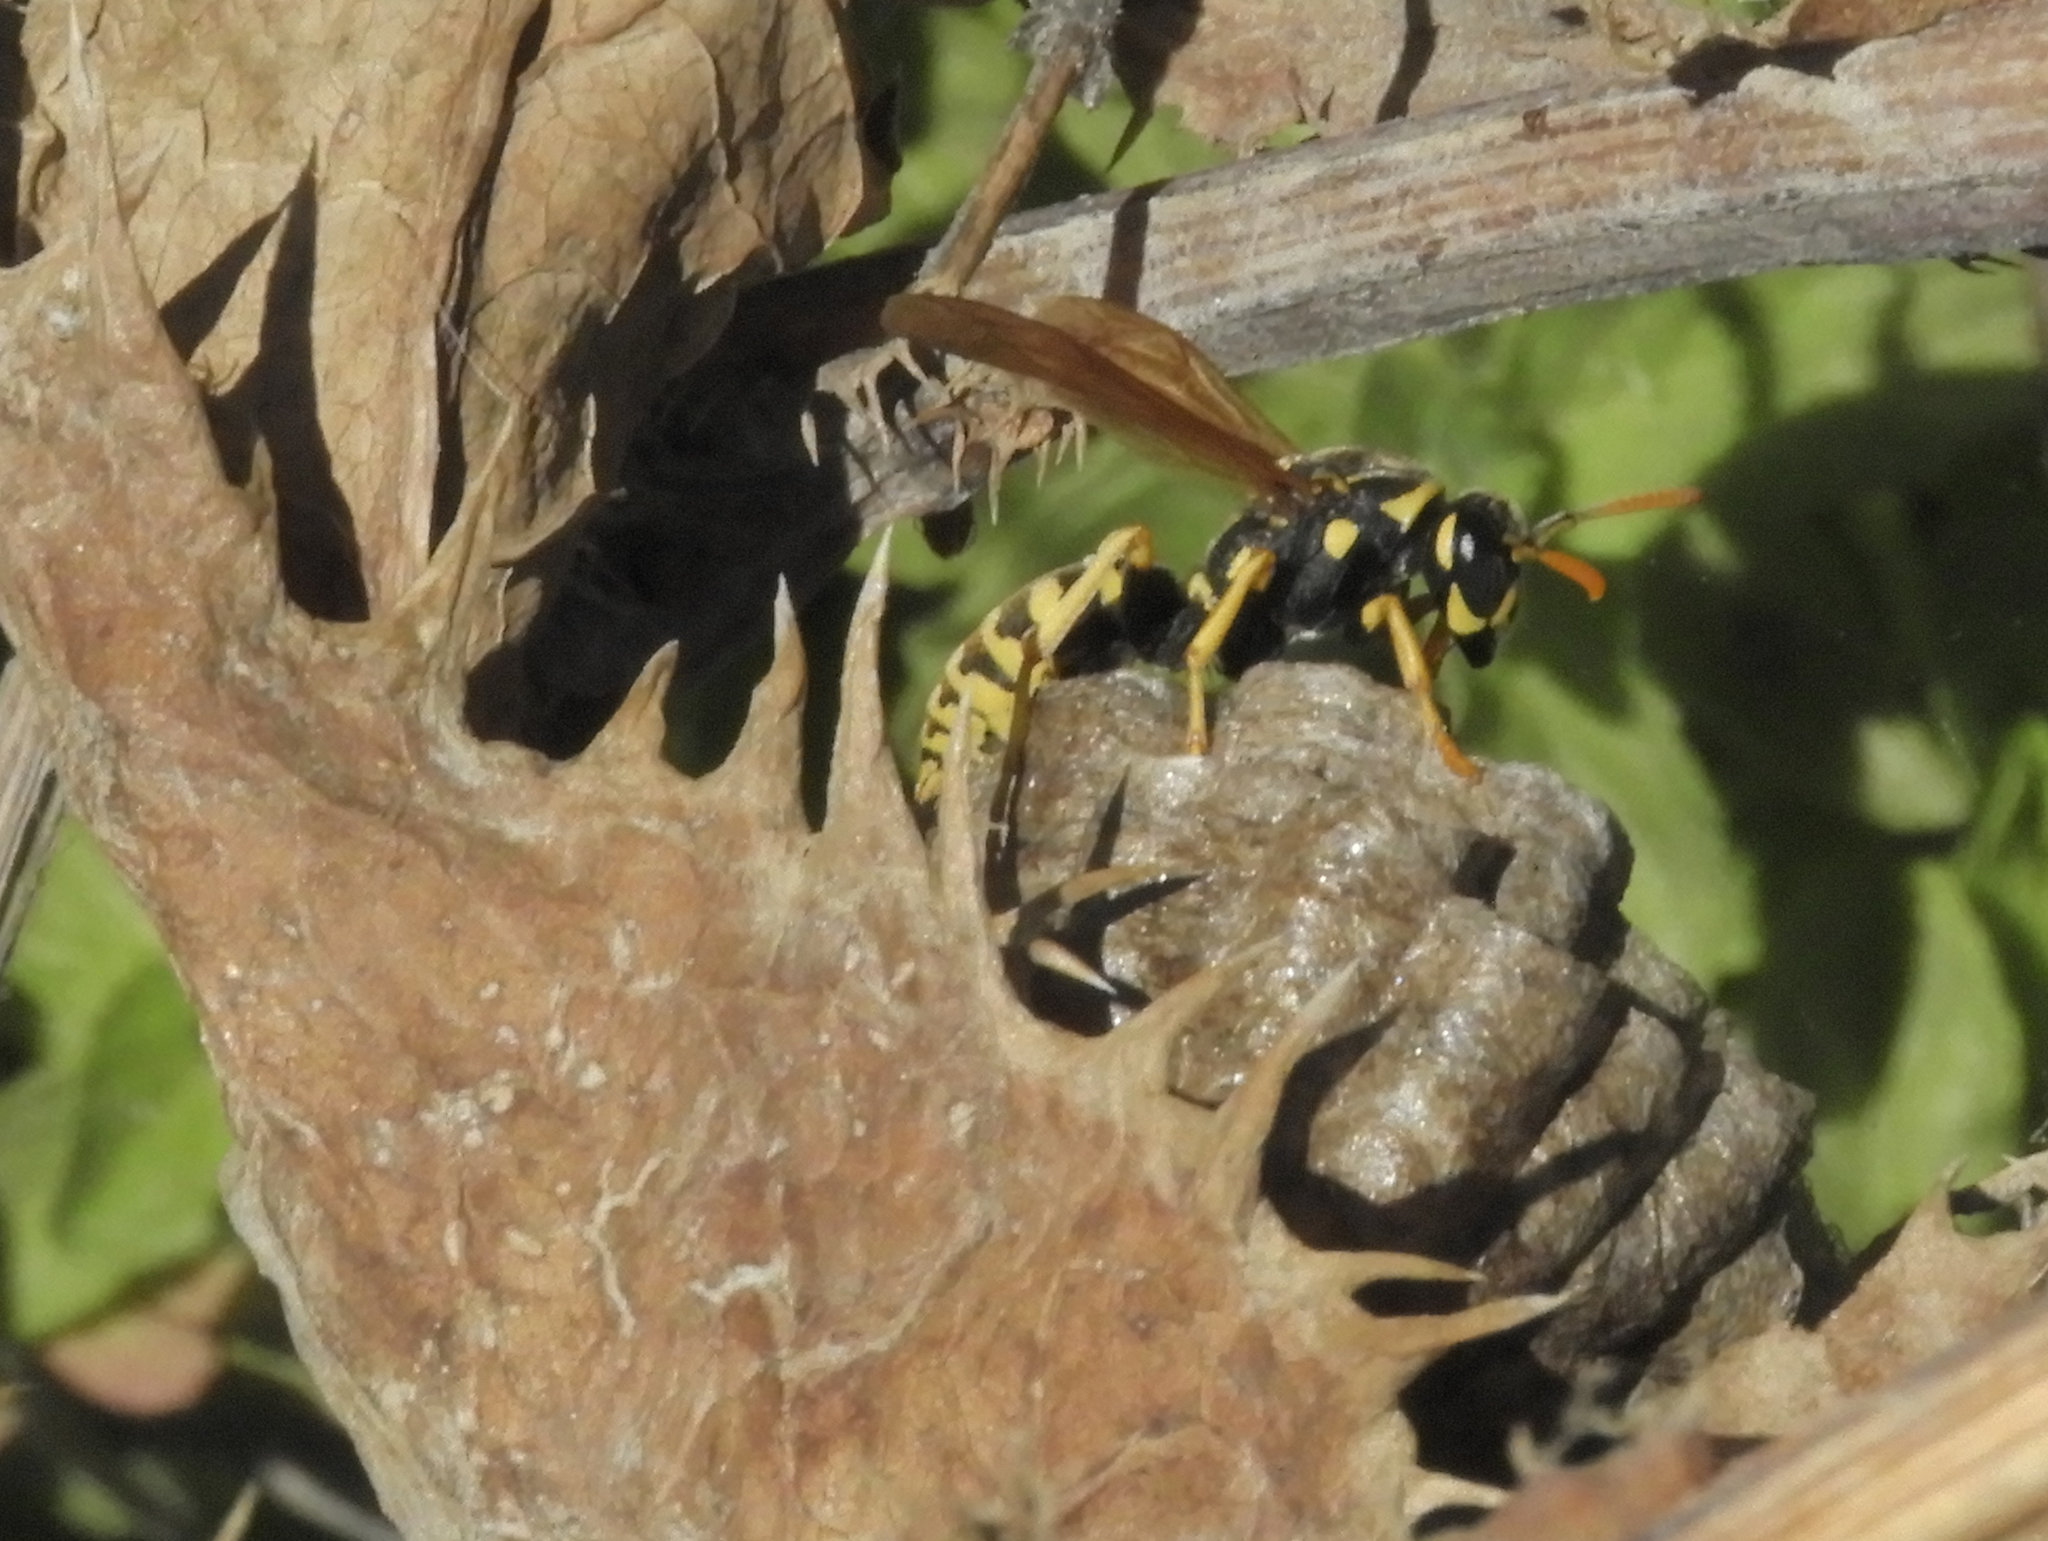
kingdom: Animalia
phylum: Arthropoda
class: Insecta
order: Hymenoptera
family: Eumenidae
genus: Polistes
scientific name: Polistes dominula
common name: Paper wasp
